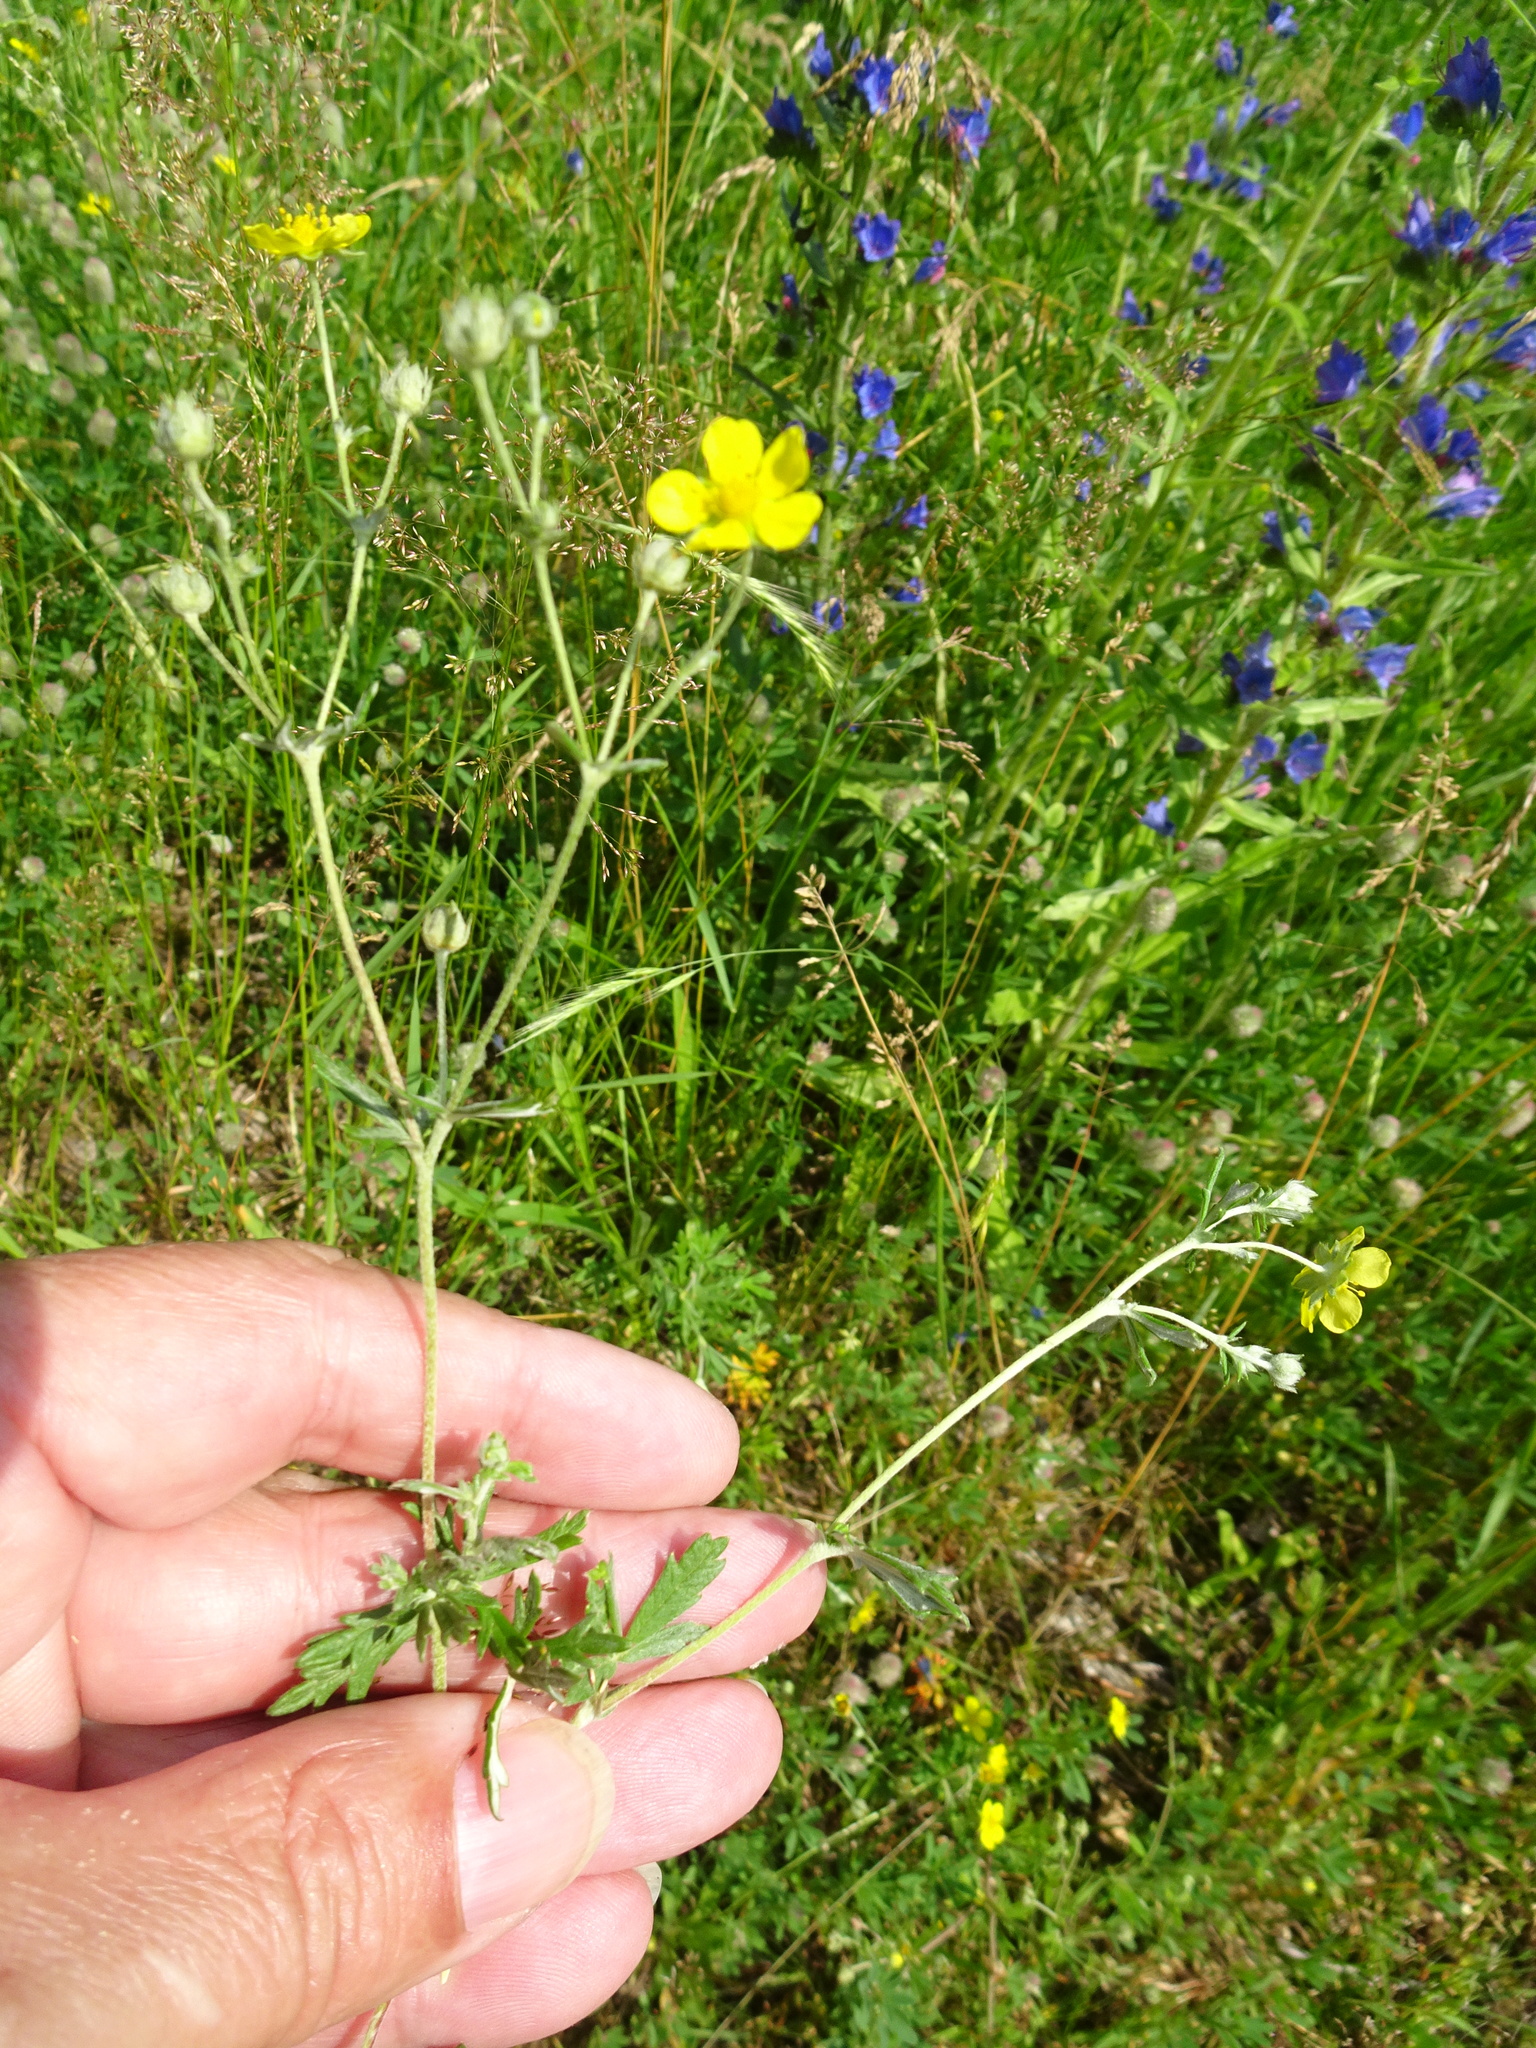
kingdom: Plantae
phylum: Tracheophyta
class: Magnoliopsida
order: Rosales
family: Rosaceae
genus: Potentilla
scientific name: Potentilla argentea
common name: Hoary cinquefoil
